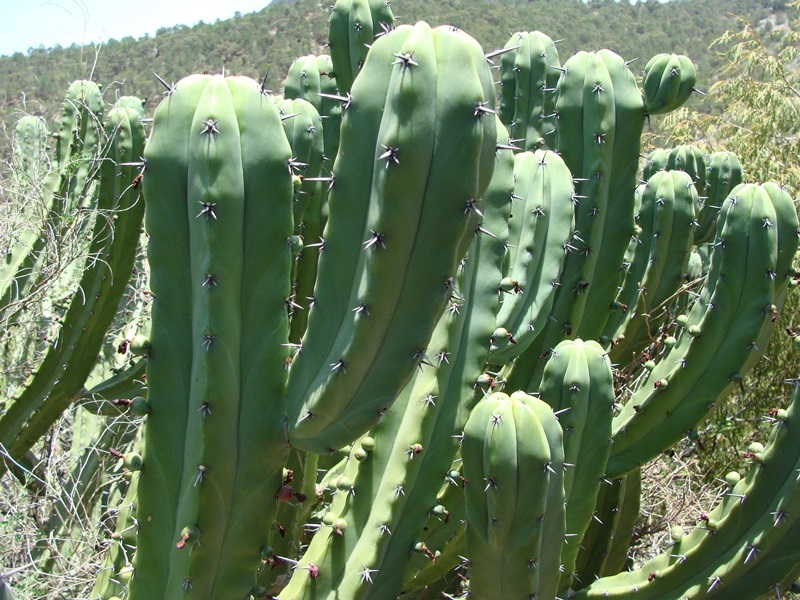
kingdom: Plantae
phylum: Tracheophyta
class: Magnoliopsida
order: Caryophyllales
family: Cactaceae
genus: Myrtillocactus
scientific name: Myrtillocactus geometrizans
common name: Bilberry cactus
